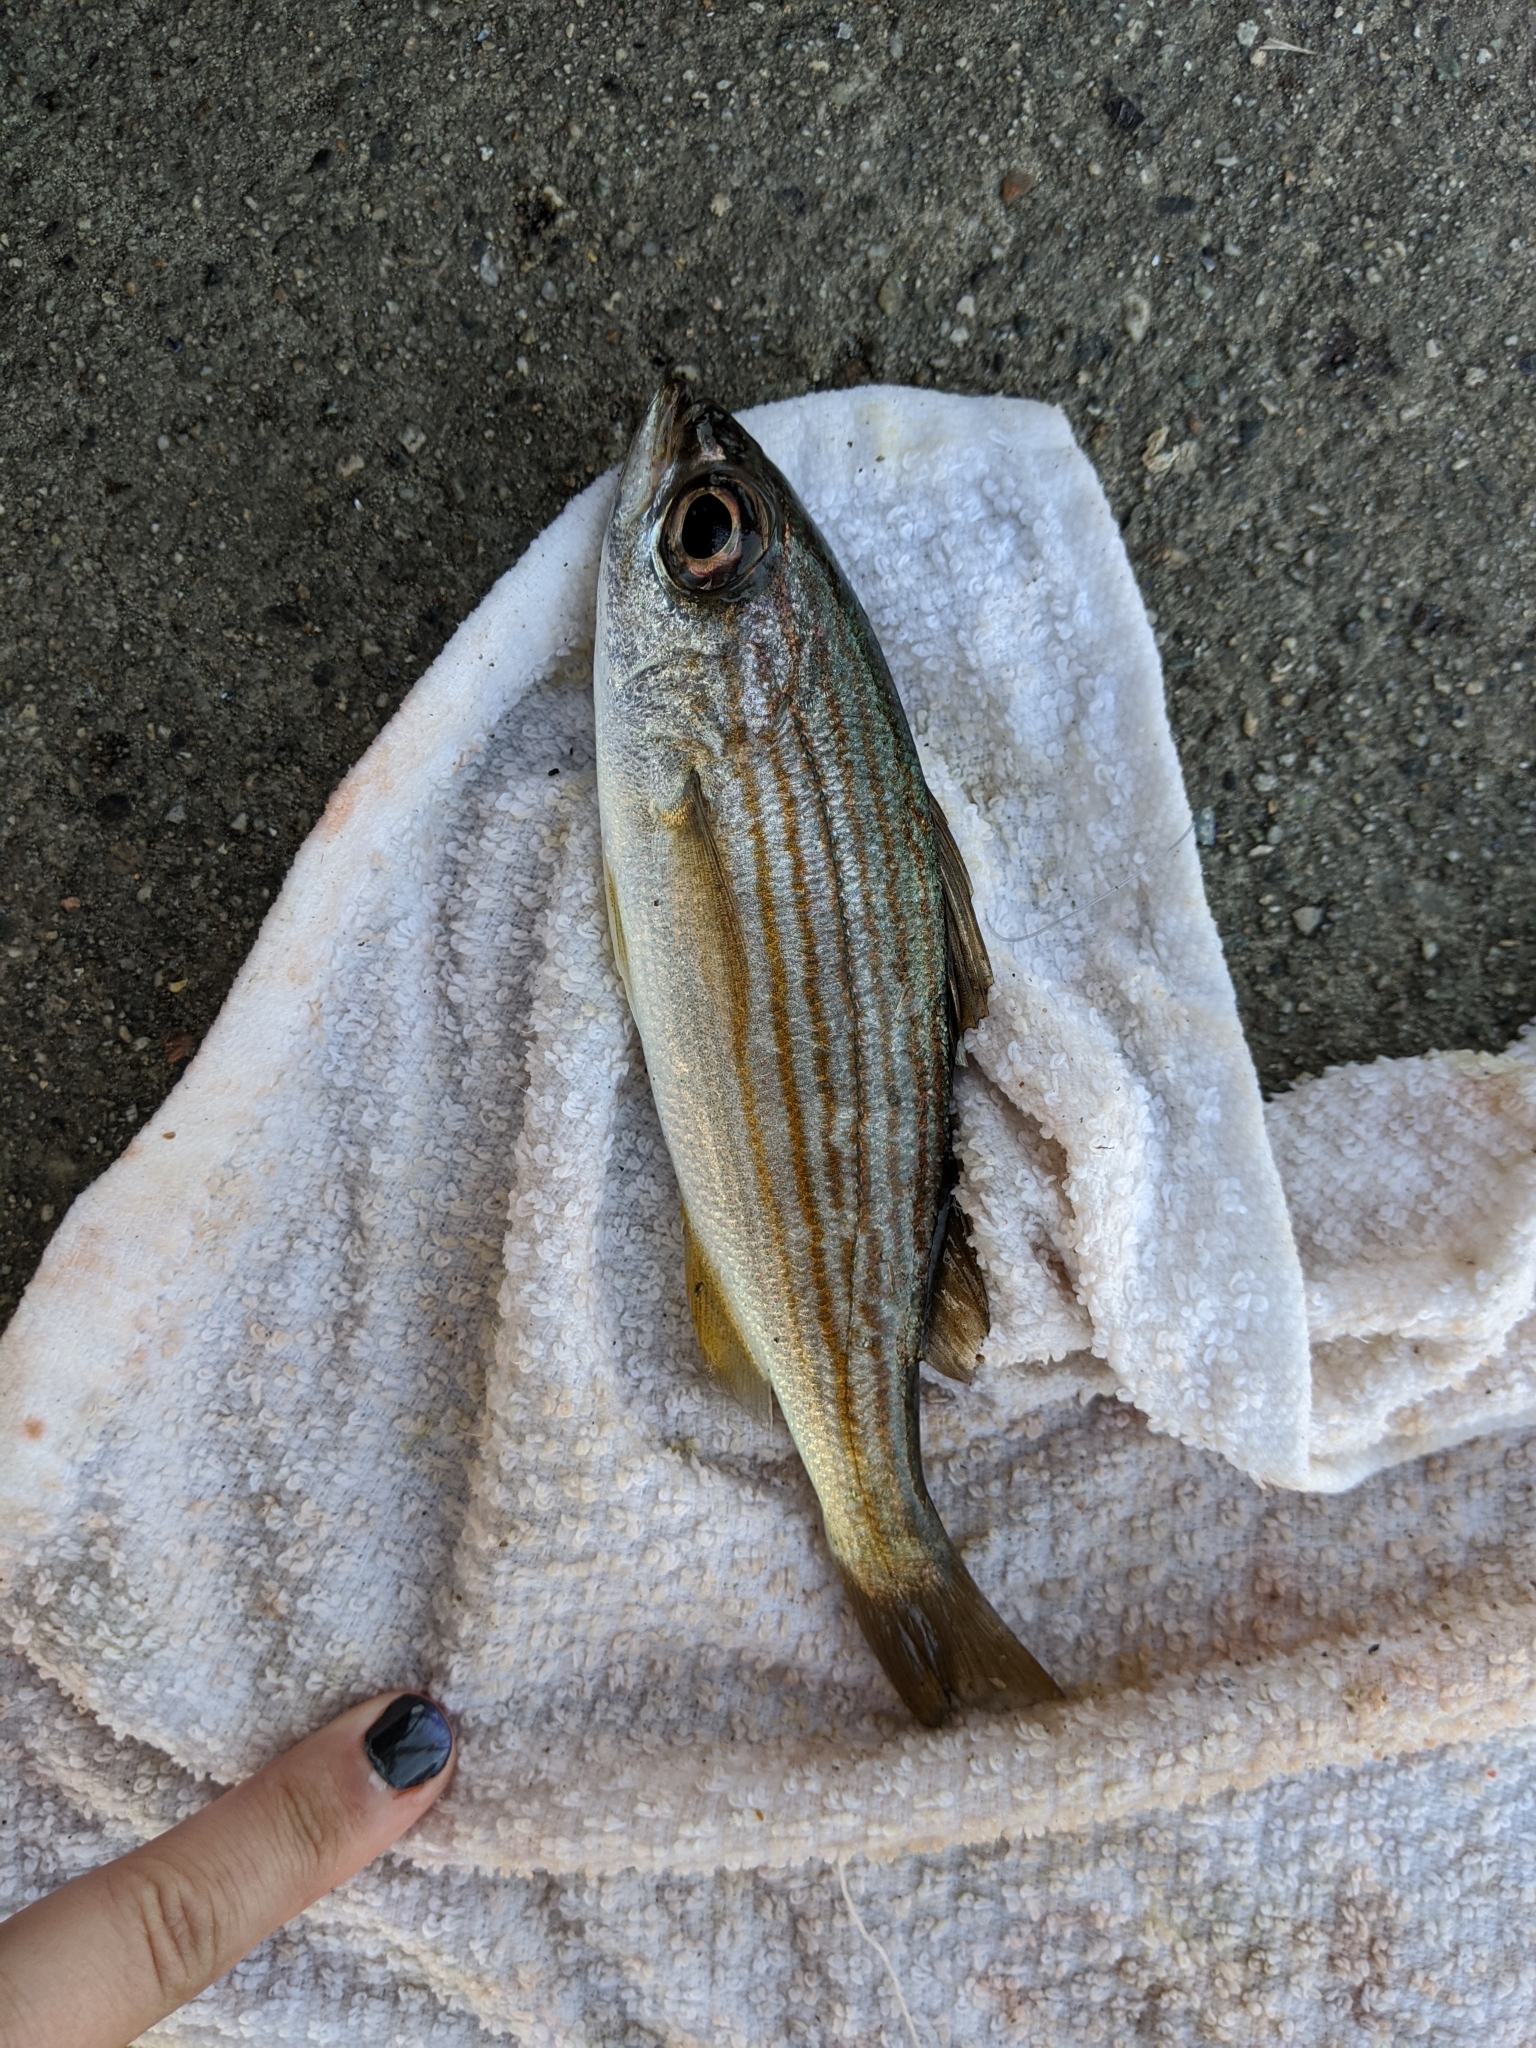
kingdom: Animalia
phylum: Chordata
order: Perciformes
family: Haemulidae
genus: Haemulon
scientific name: Haemulon californiensis
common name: Californian salema
